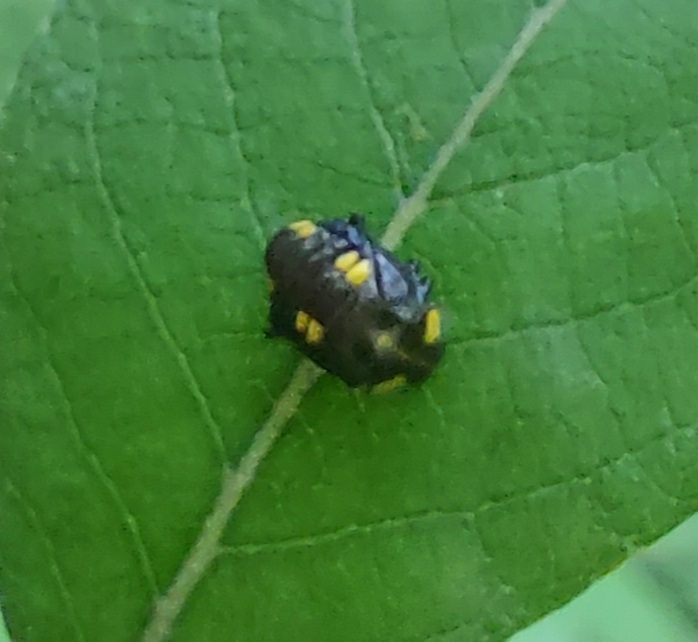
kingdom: Animalia
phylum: Arthropoda
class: Insecta
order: Coleoptera
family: Coccinellidae
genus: Halyzia
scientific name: Halyzia sedecimguttata
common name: Orange ladybird
